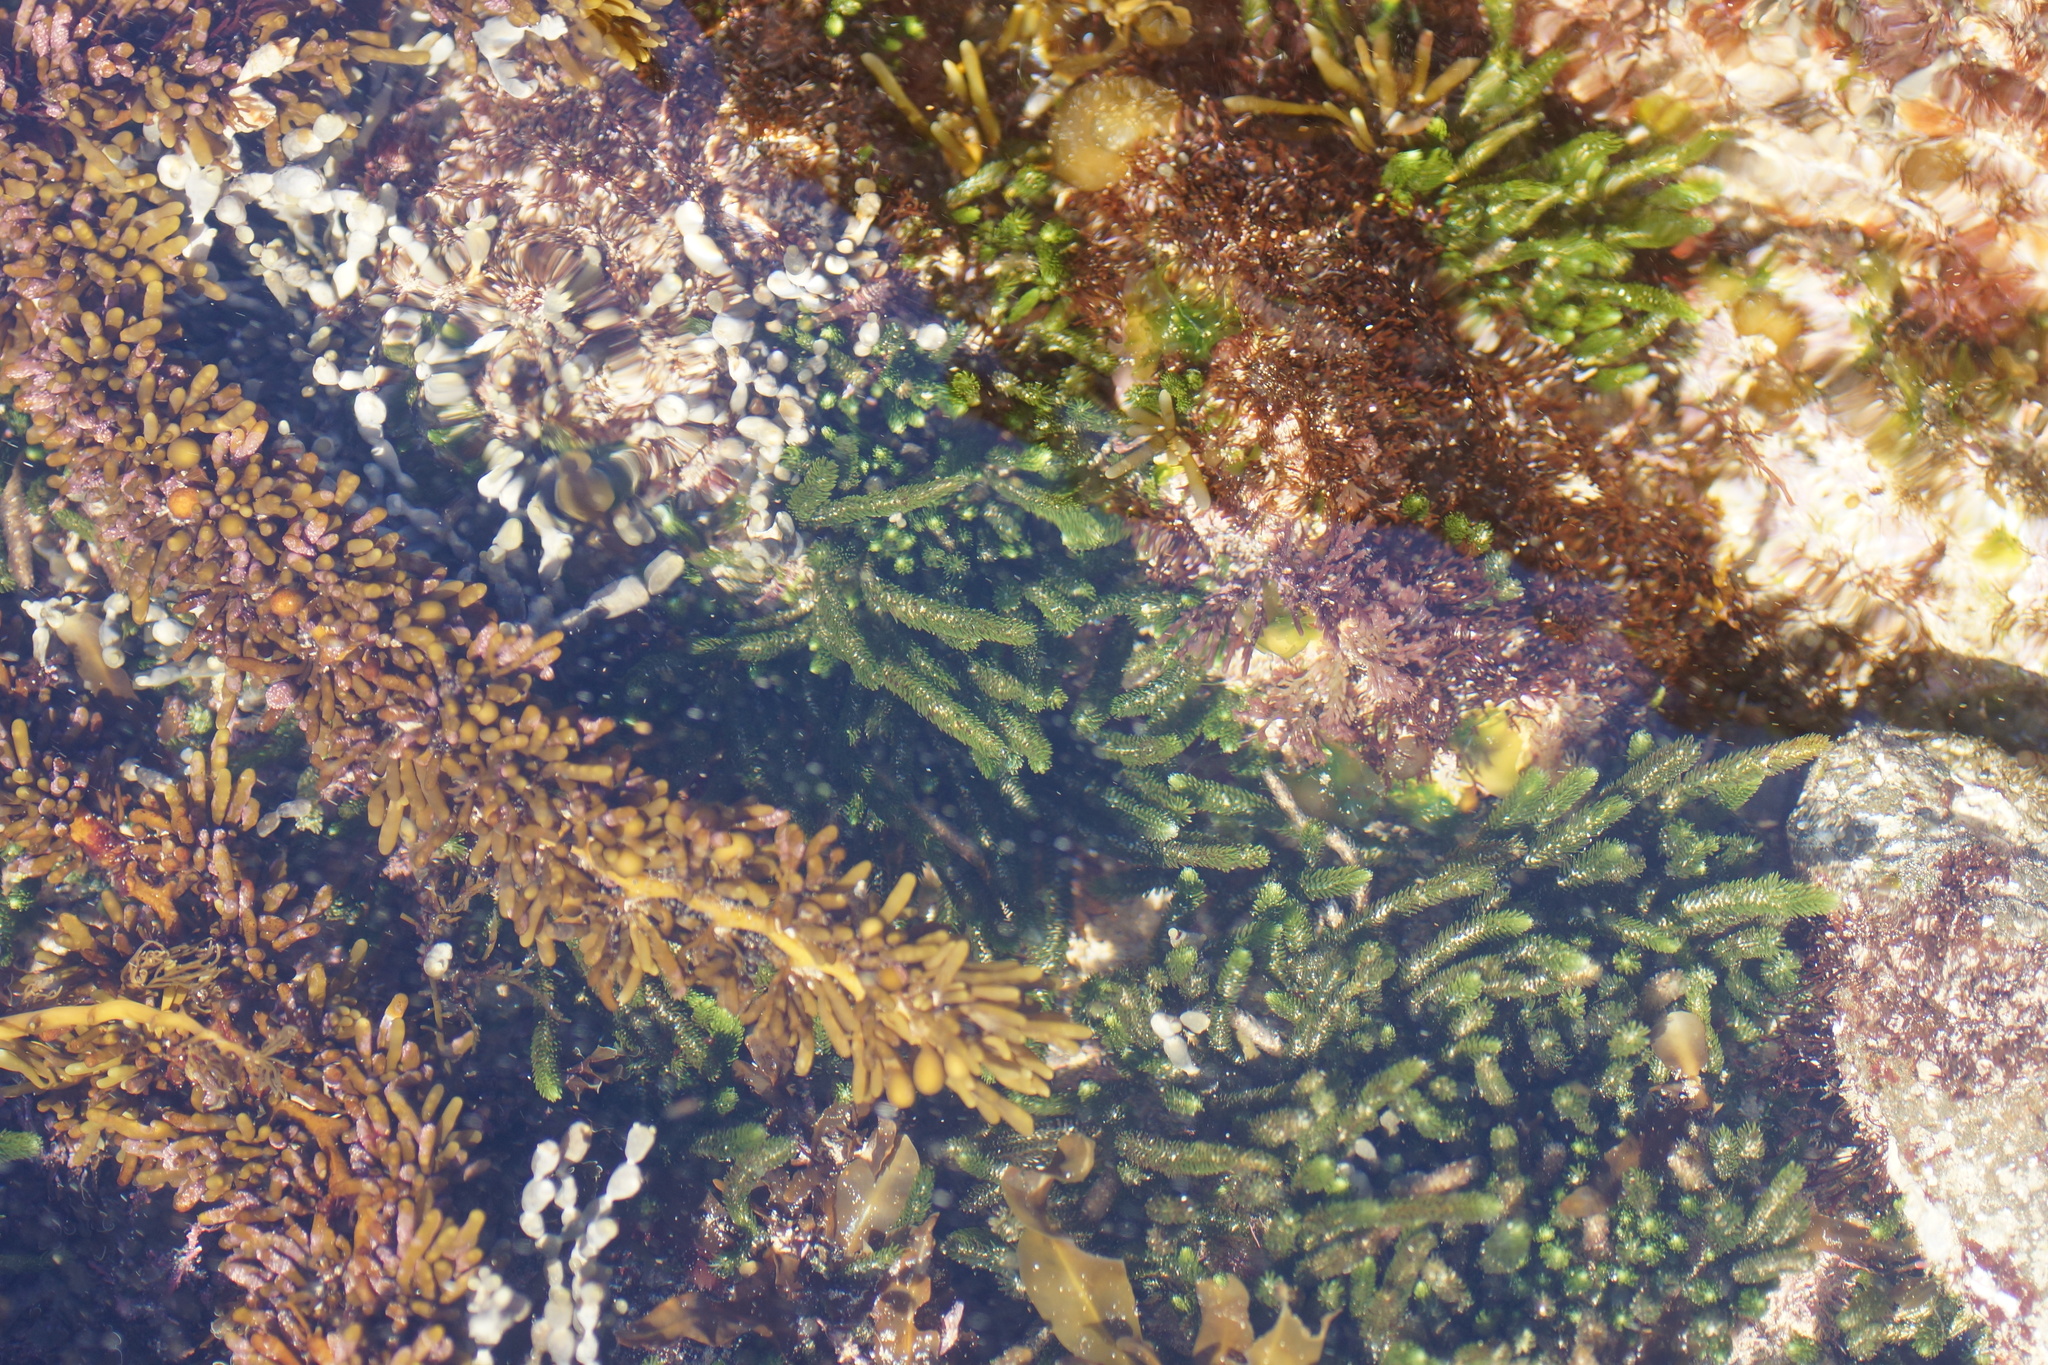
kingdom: Plantae
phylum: Chlorophyta
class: Ulvophyceae
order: Bryopsidales
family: Caulerpaceae
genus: Caulerpa
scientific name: Caulerpa brownii
